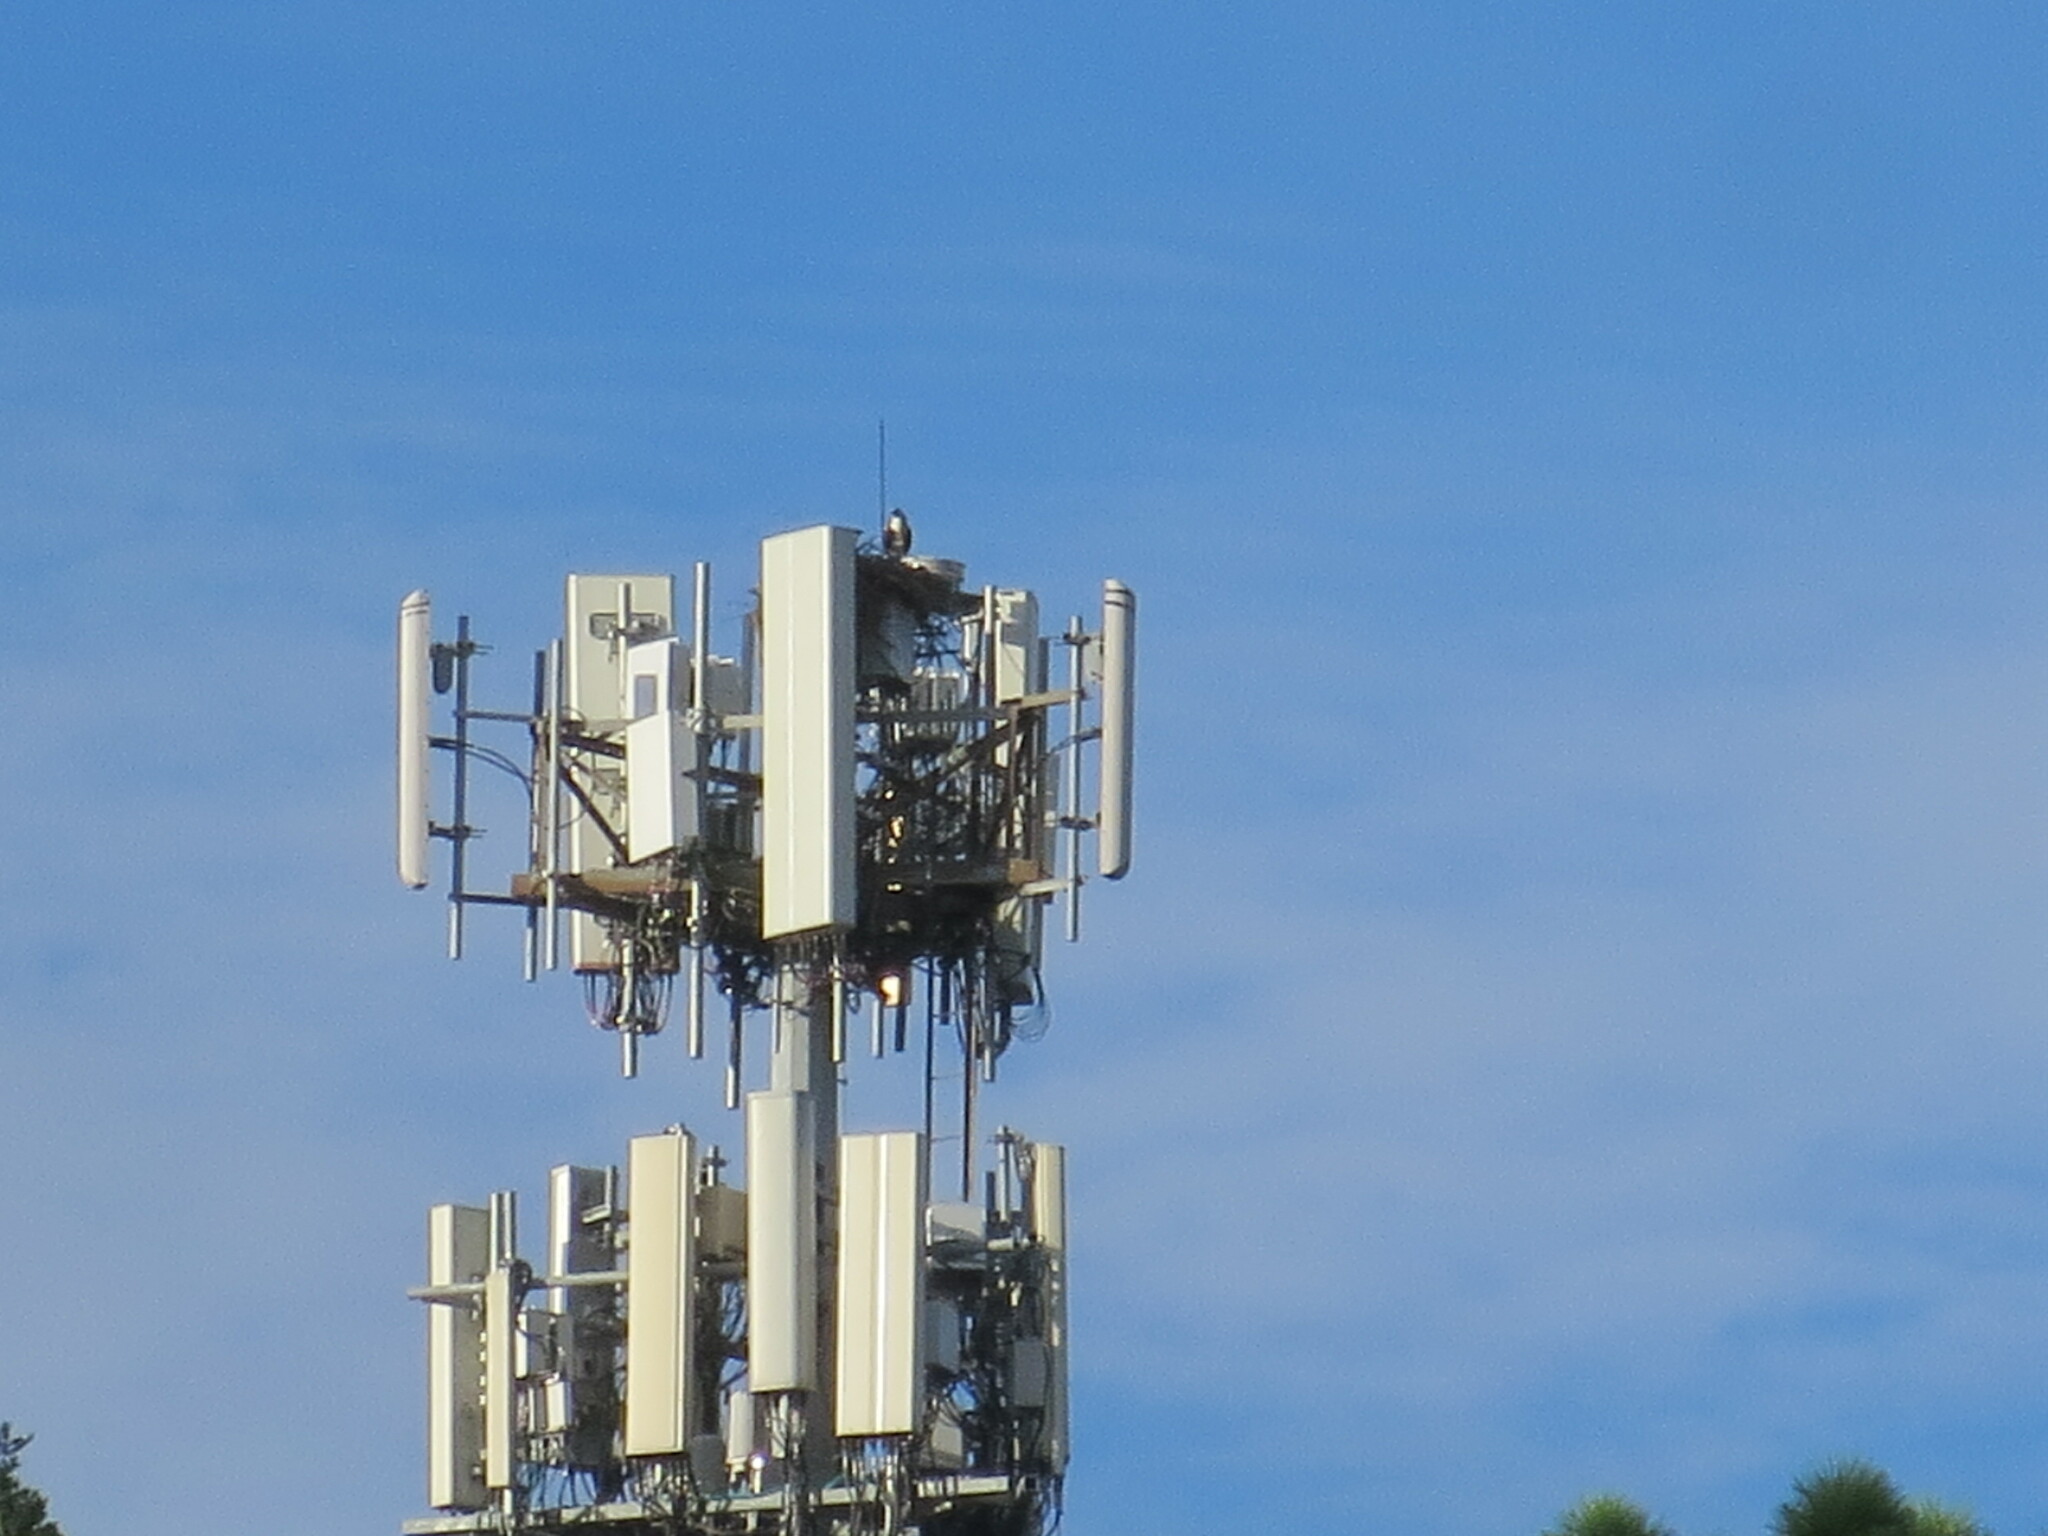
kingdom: Animalia
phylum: Chordata
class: Aves
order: Accipitriformes
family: Pandionidae
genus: Pandion
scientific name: Pandion haliaetus
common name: Osprey
